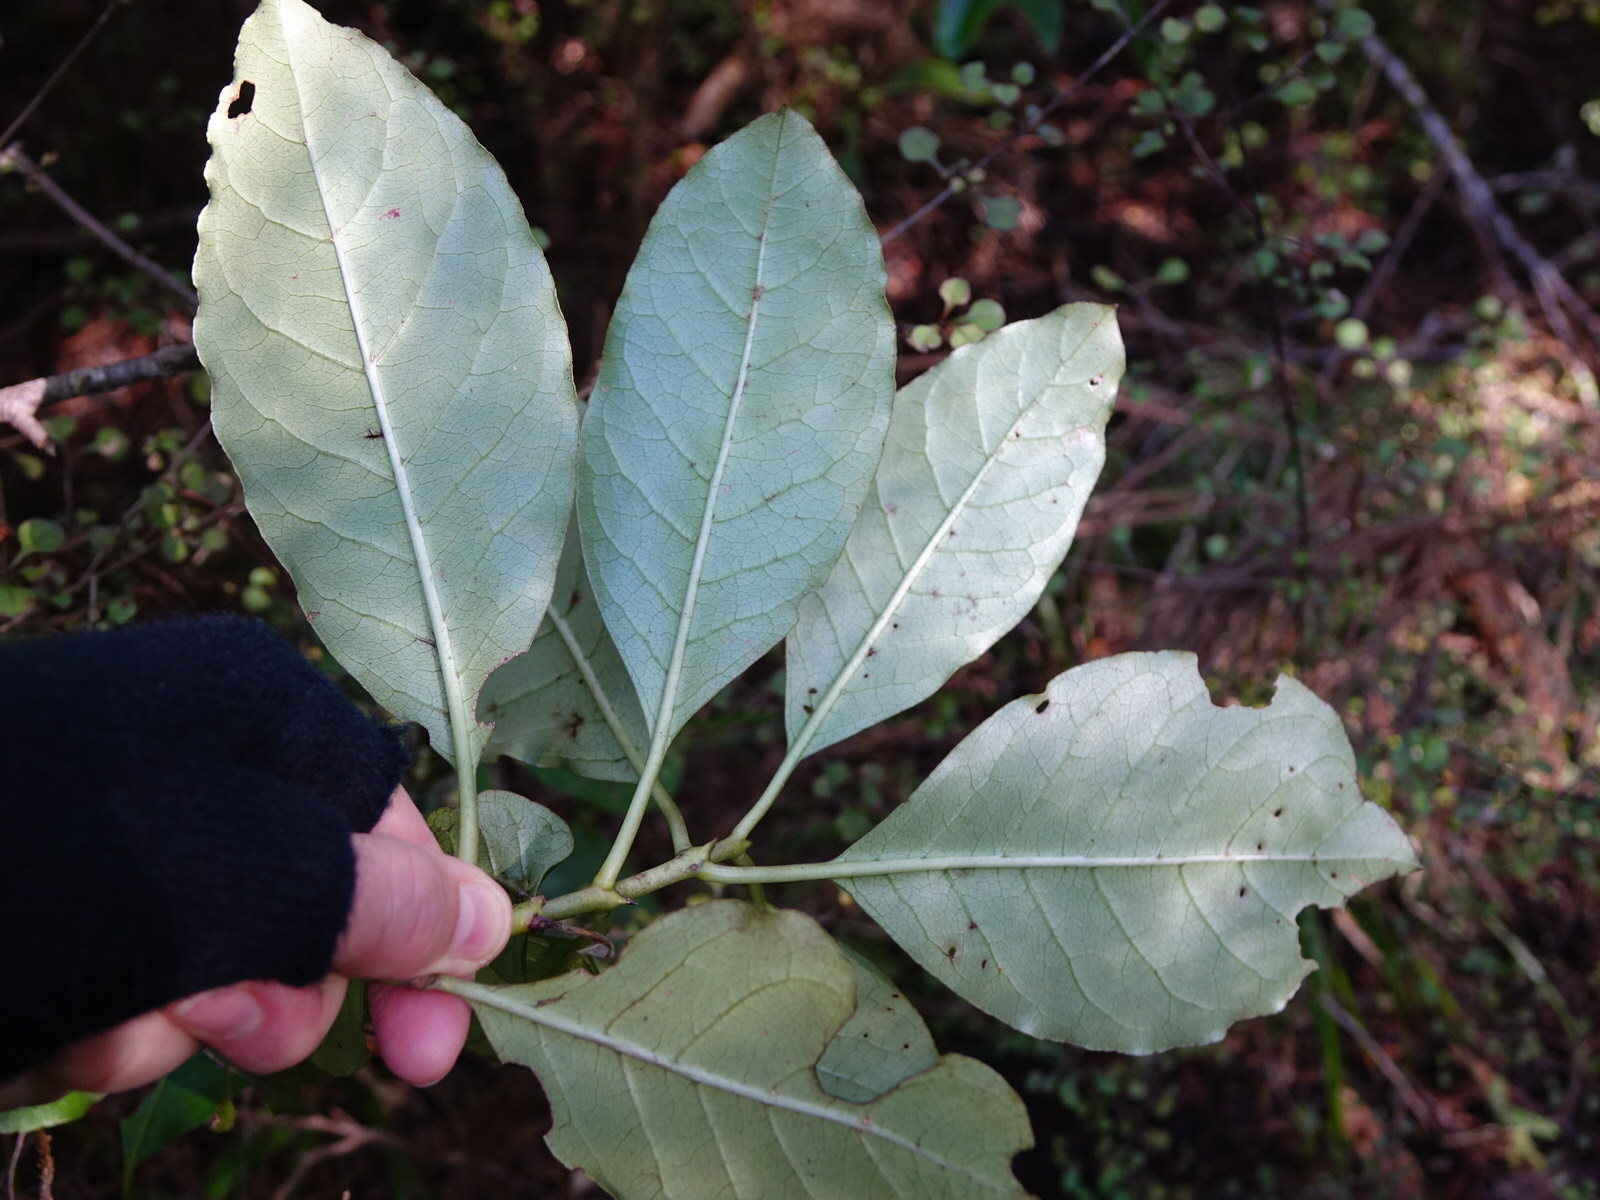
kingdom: Plantae
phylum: Tracheophyta
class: Magnoliopsida
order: Gentianales
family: Rubiaceae
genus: Coprosma
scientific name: Coprosma autumnalis
